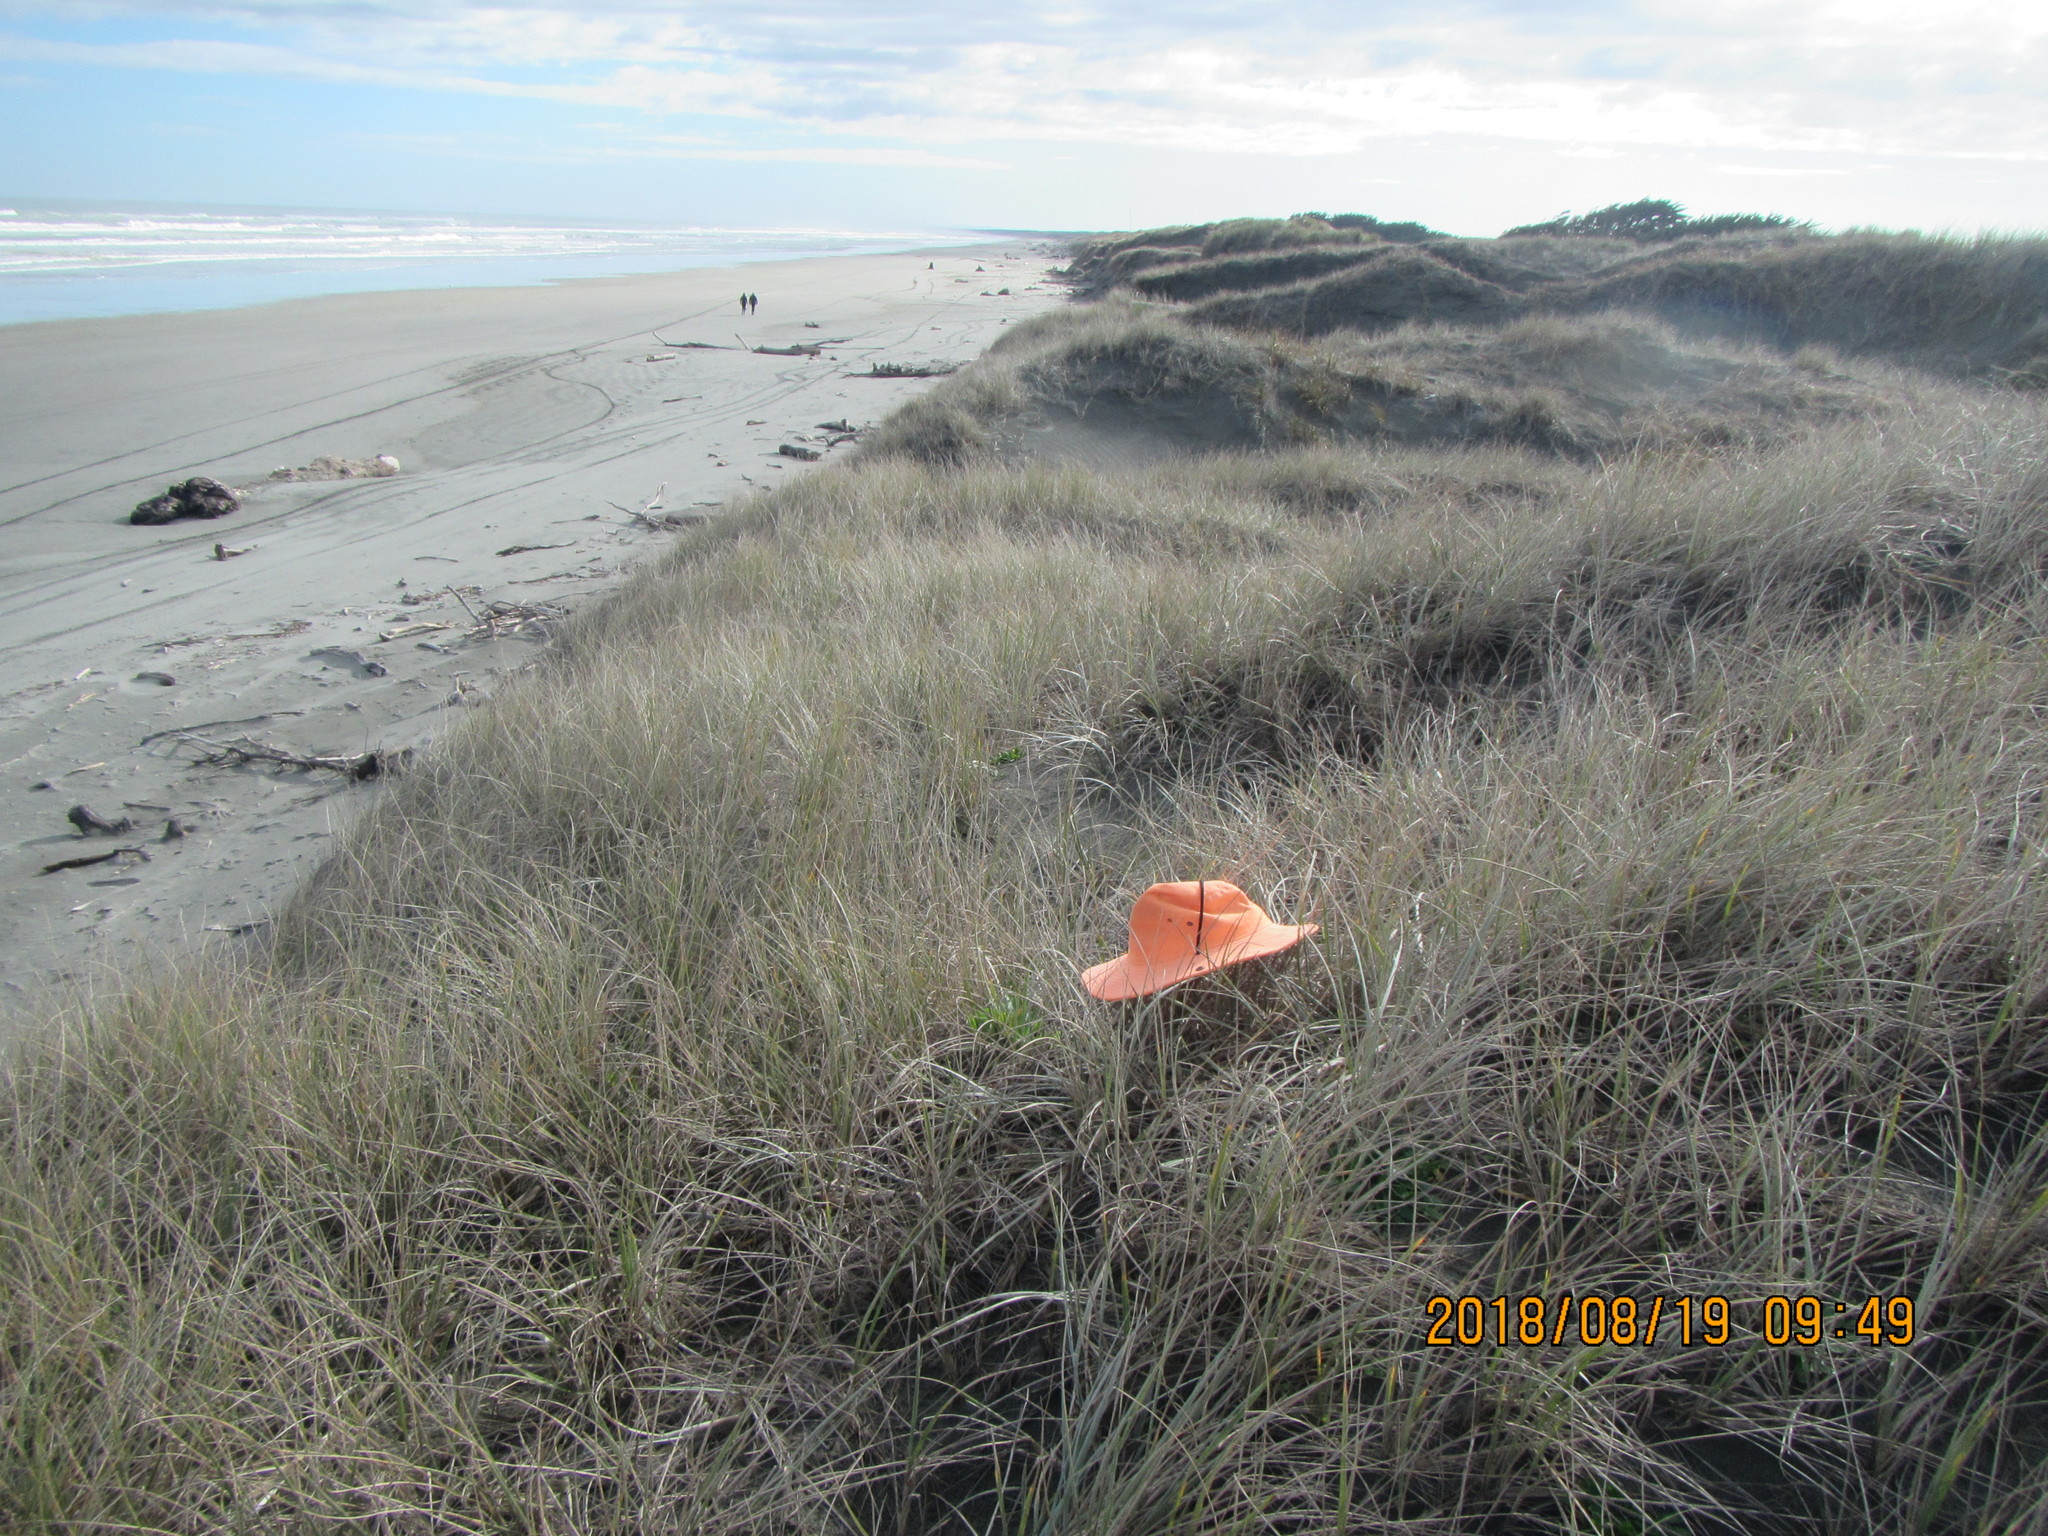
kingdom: Plantae
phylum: Tracheophyta
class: Magnoliopsida
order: Asterales
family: Asteraceae
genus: Erigeron
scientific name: Erigeron sumatrensis
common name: Daisy
